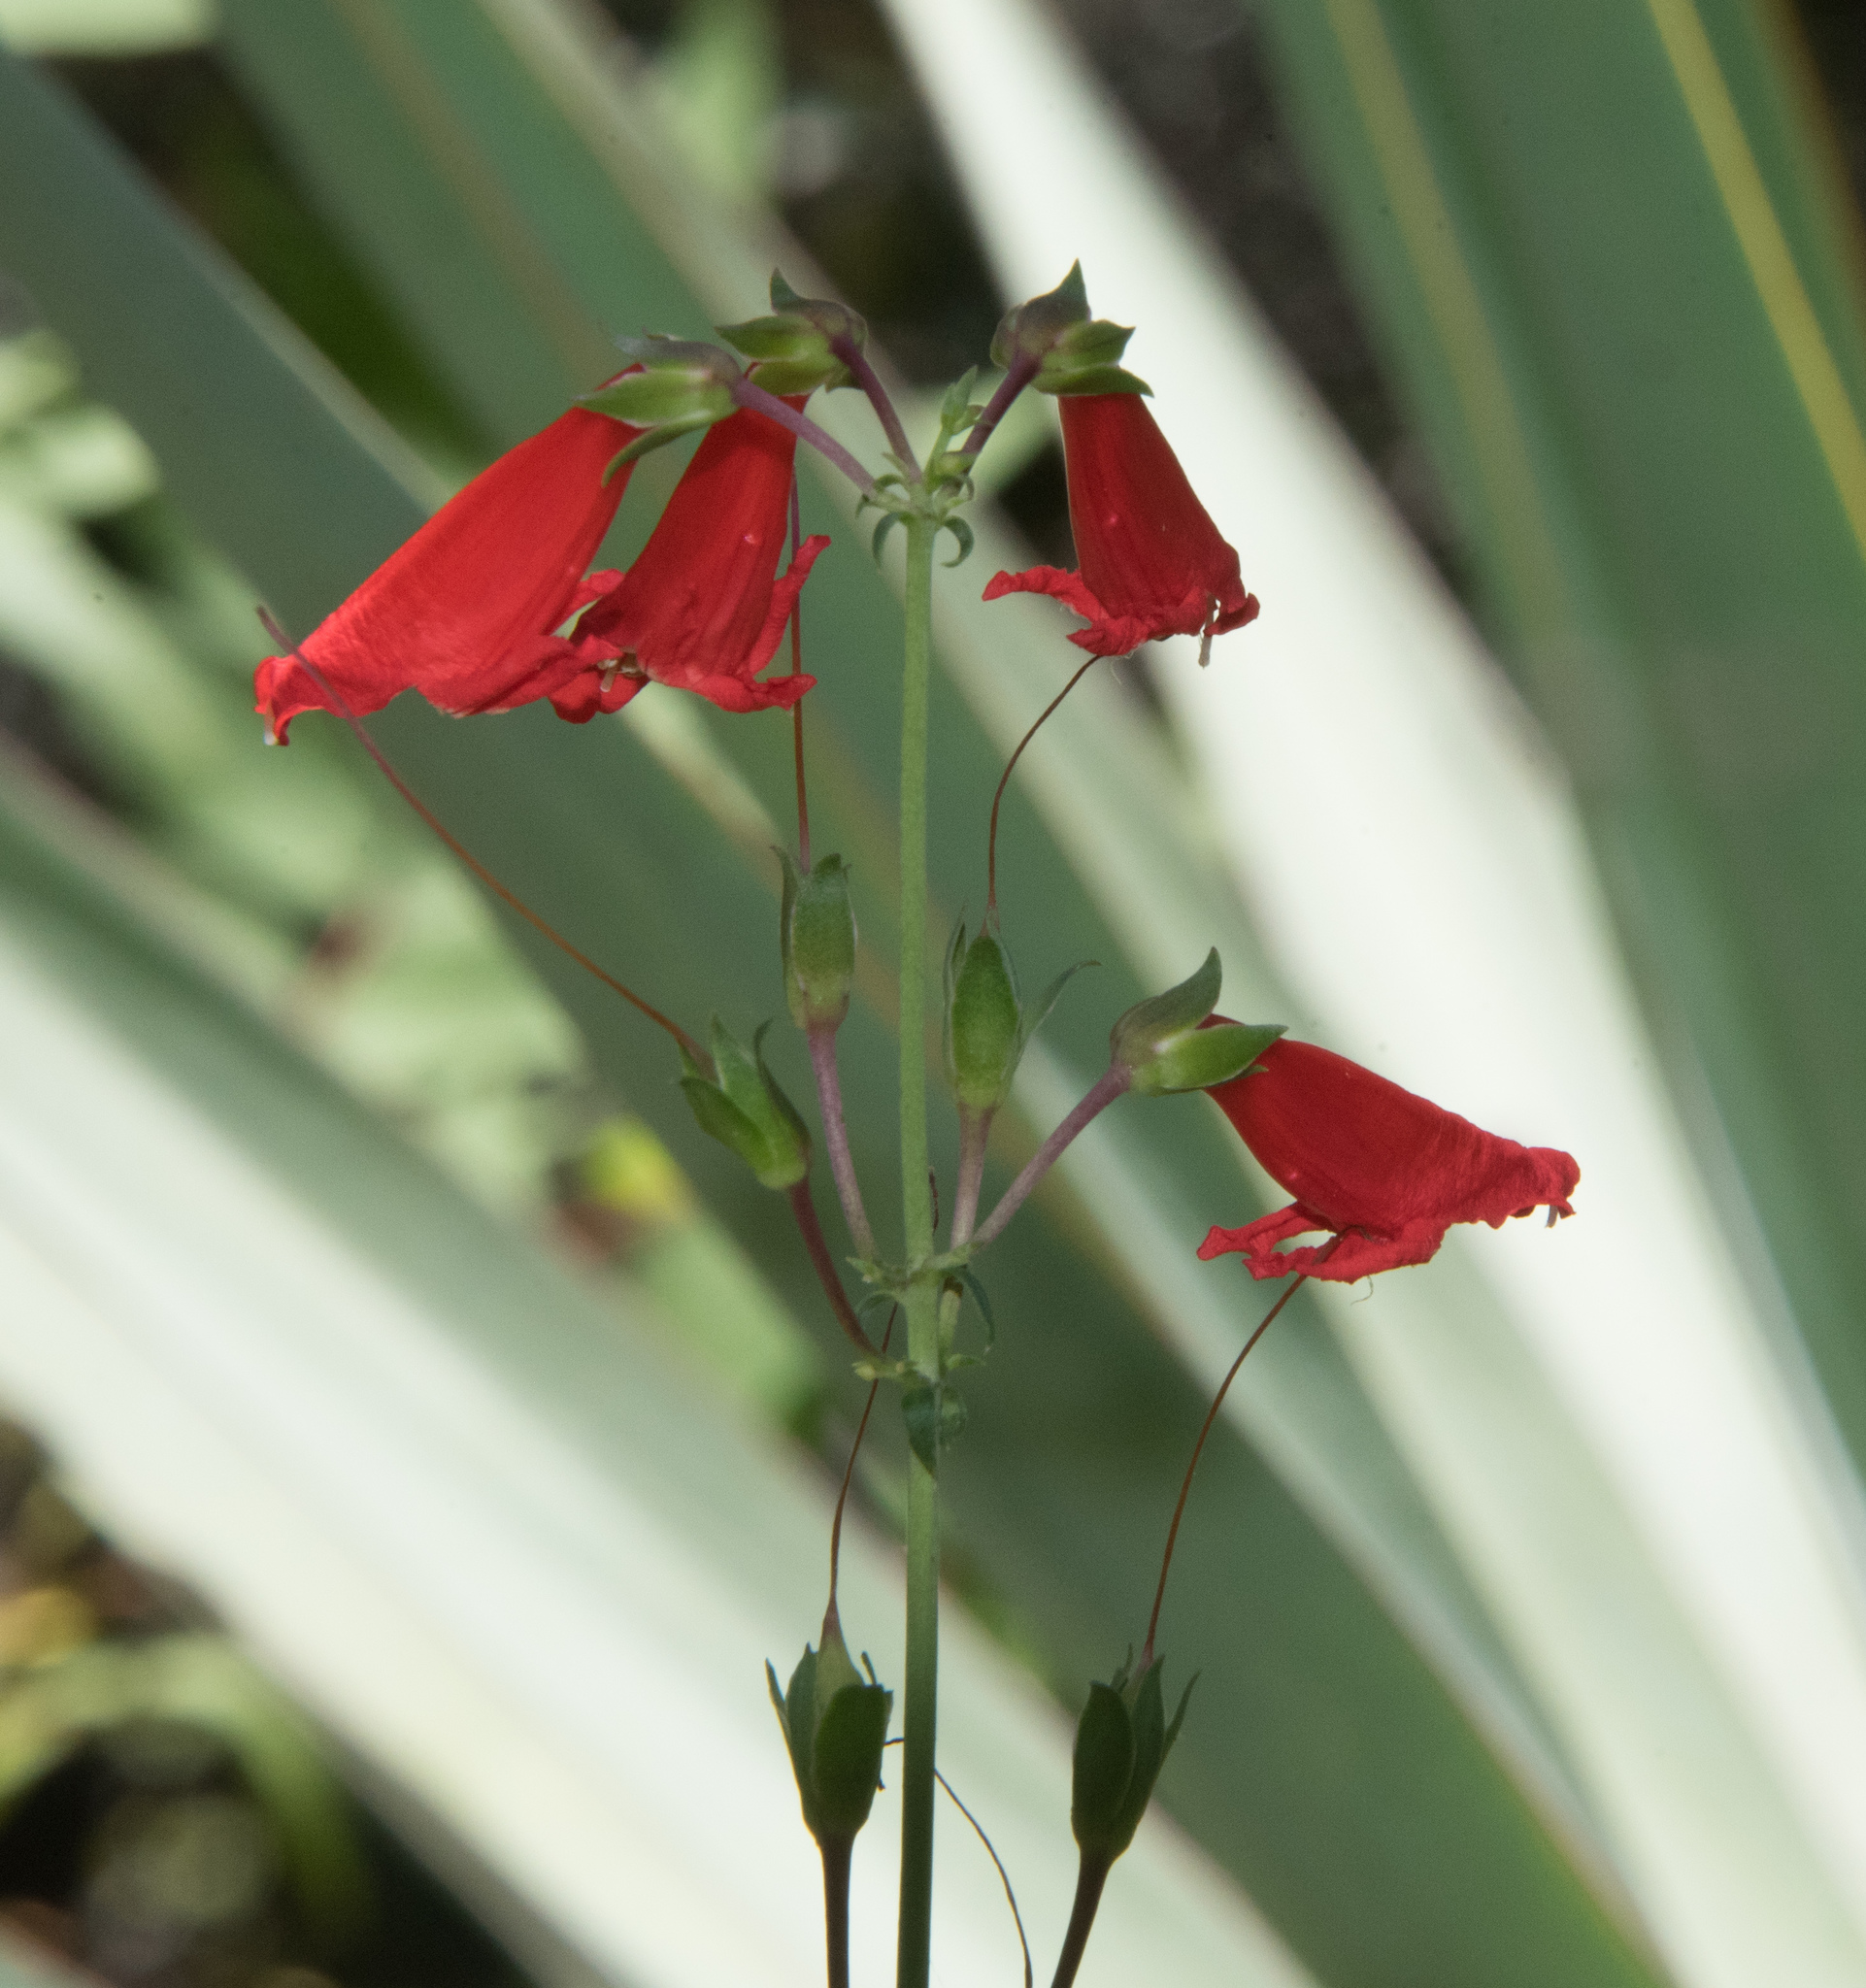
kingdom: Plantae
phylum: Tracheophyta
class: Magnoliopsida
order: Lamiales
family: Plantaginaceae
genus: Penstemon
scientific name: Penstemon barbatus
